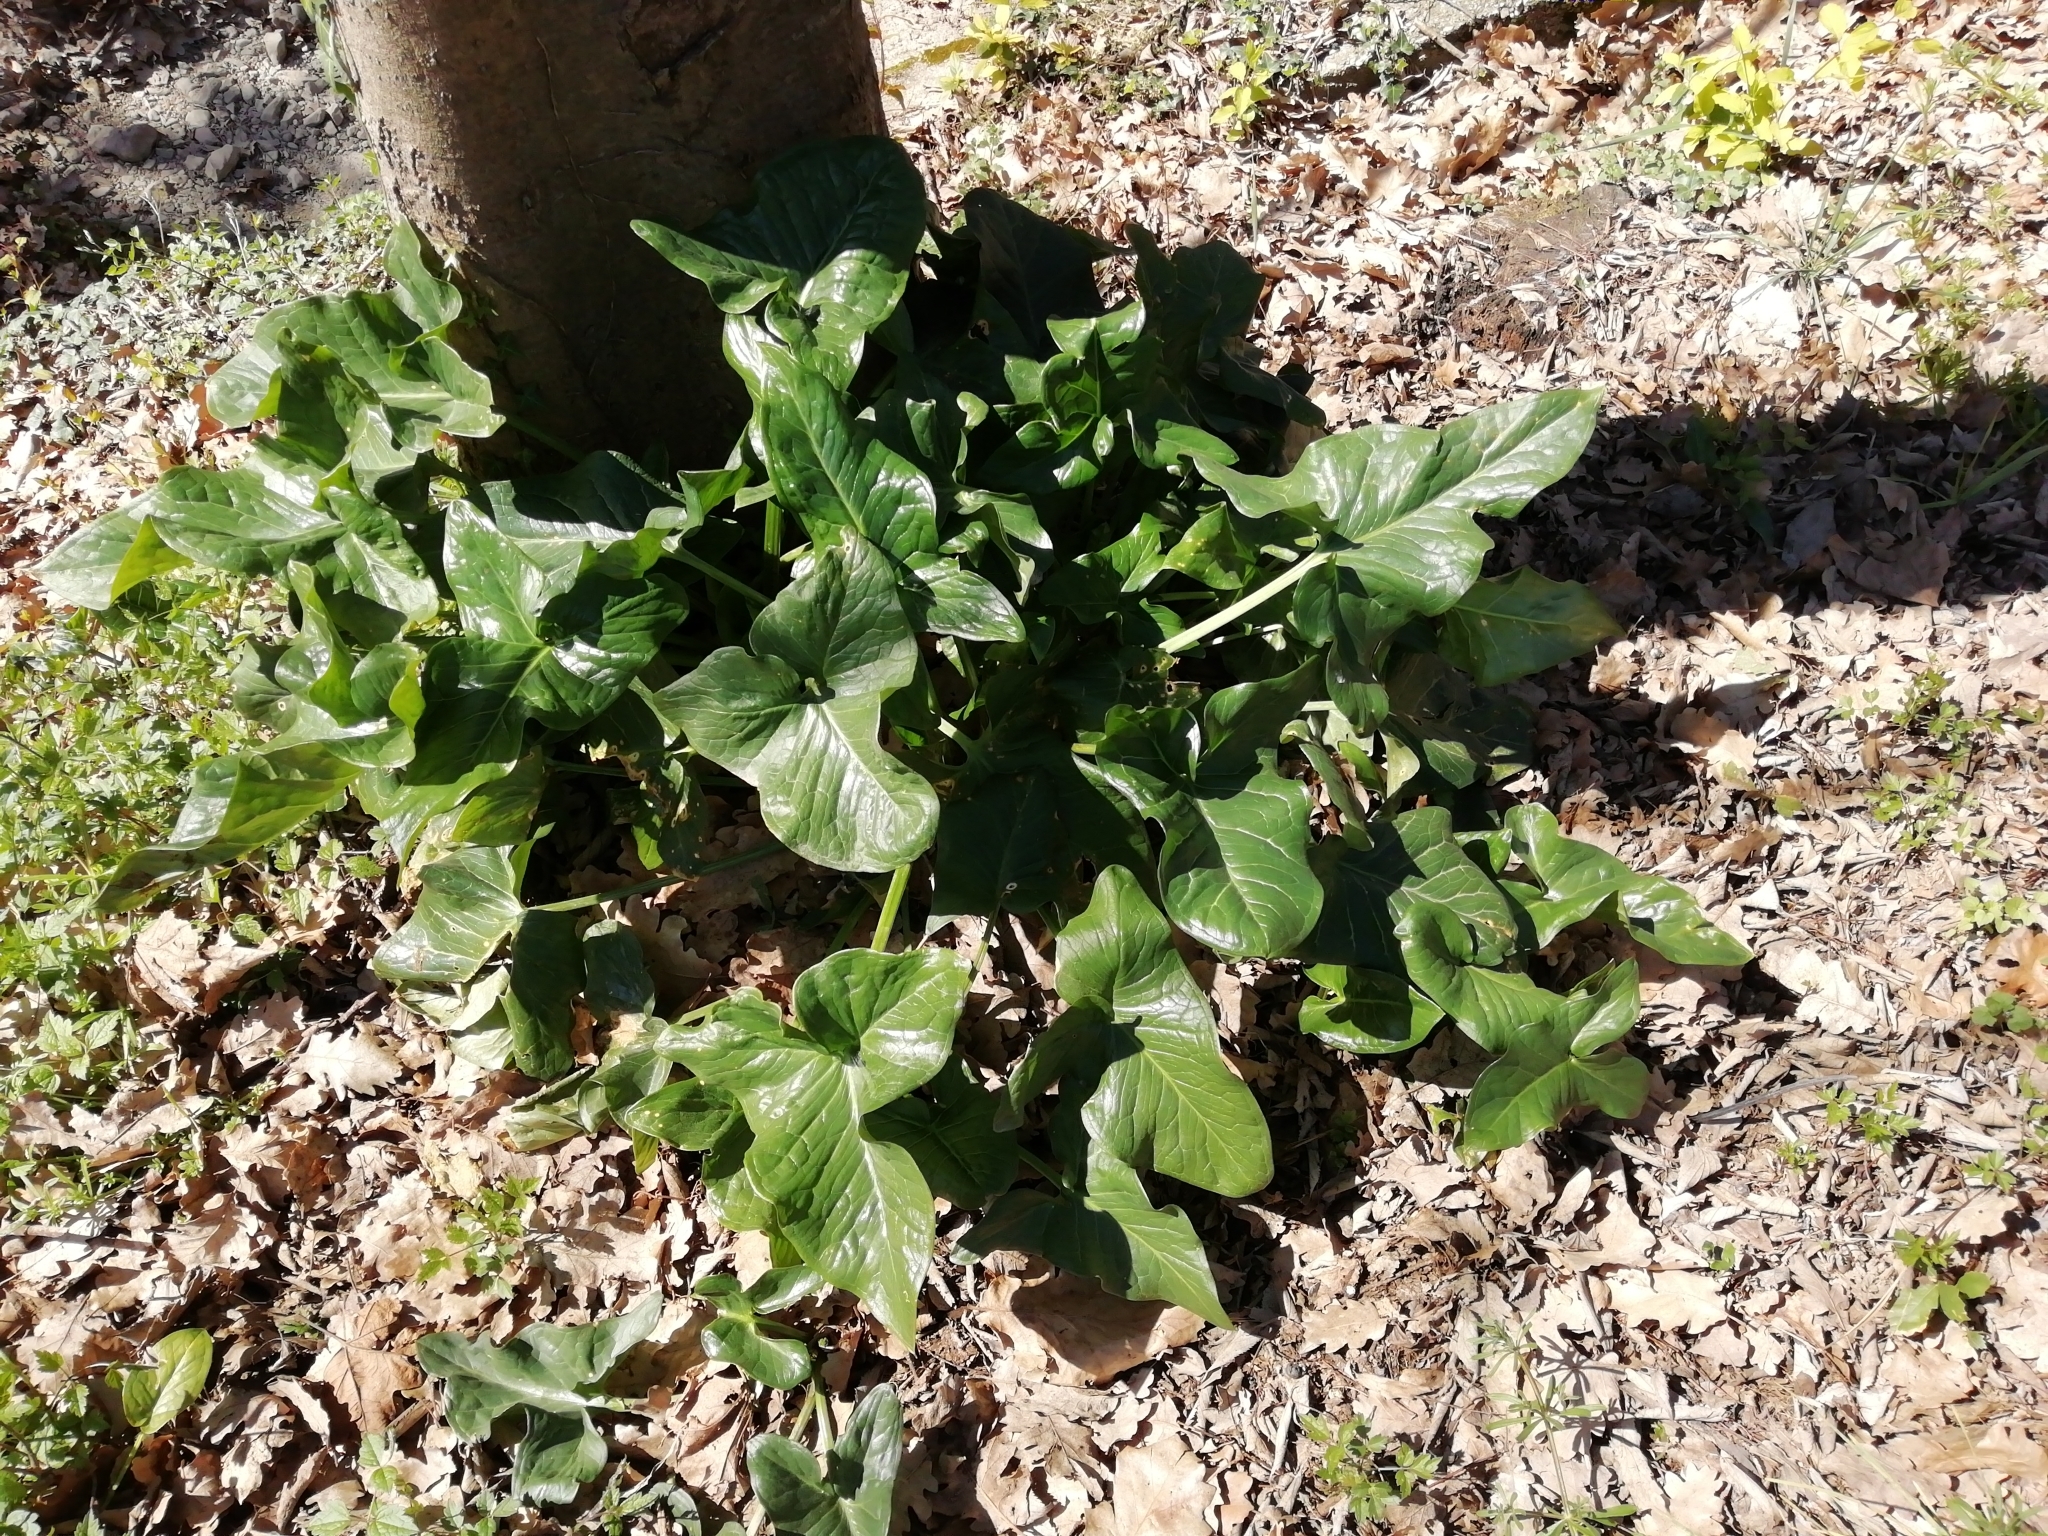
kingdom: Plantae
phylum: Tracheophyta
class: Liliopsida
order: Alismatales
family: Araceae
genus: Arum
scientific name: Arum italicum
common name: Italian lords-and-ladies
